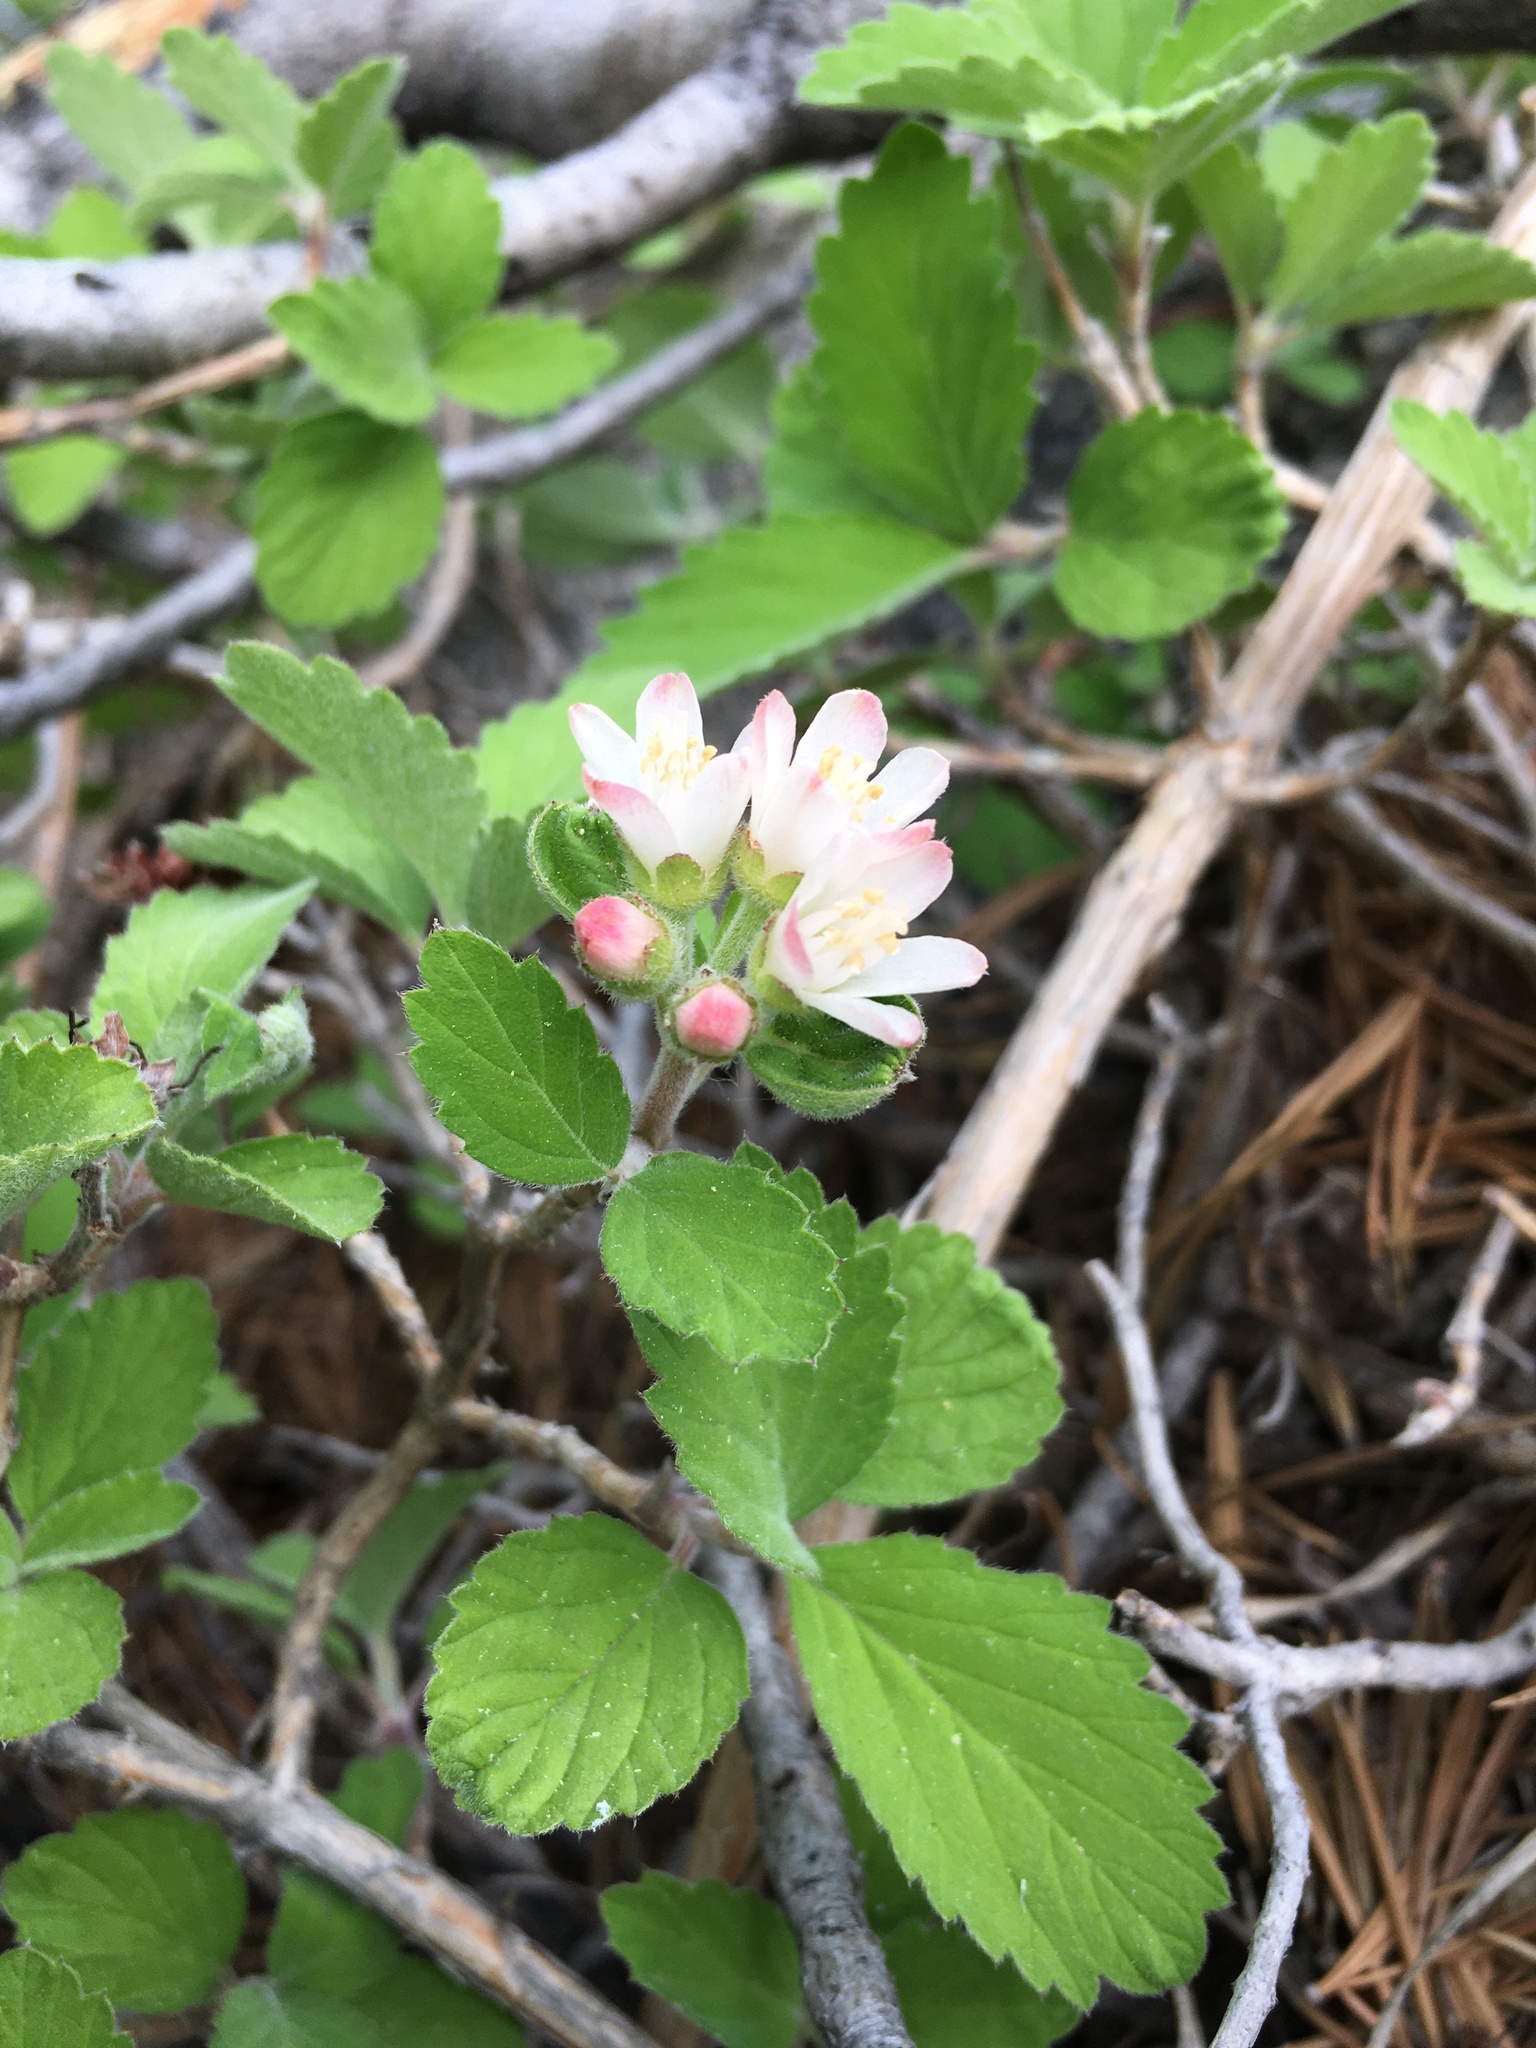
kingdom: Plantae
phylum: Tracheophyta
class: Magnoliopsida
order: Cornales
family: Hydrangeaceae
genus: Jamesia
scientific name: Jamesia americana
